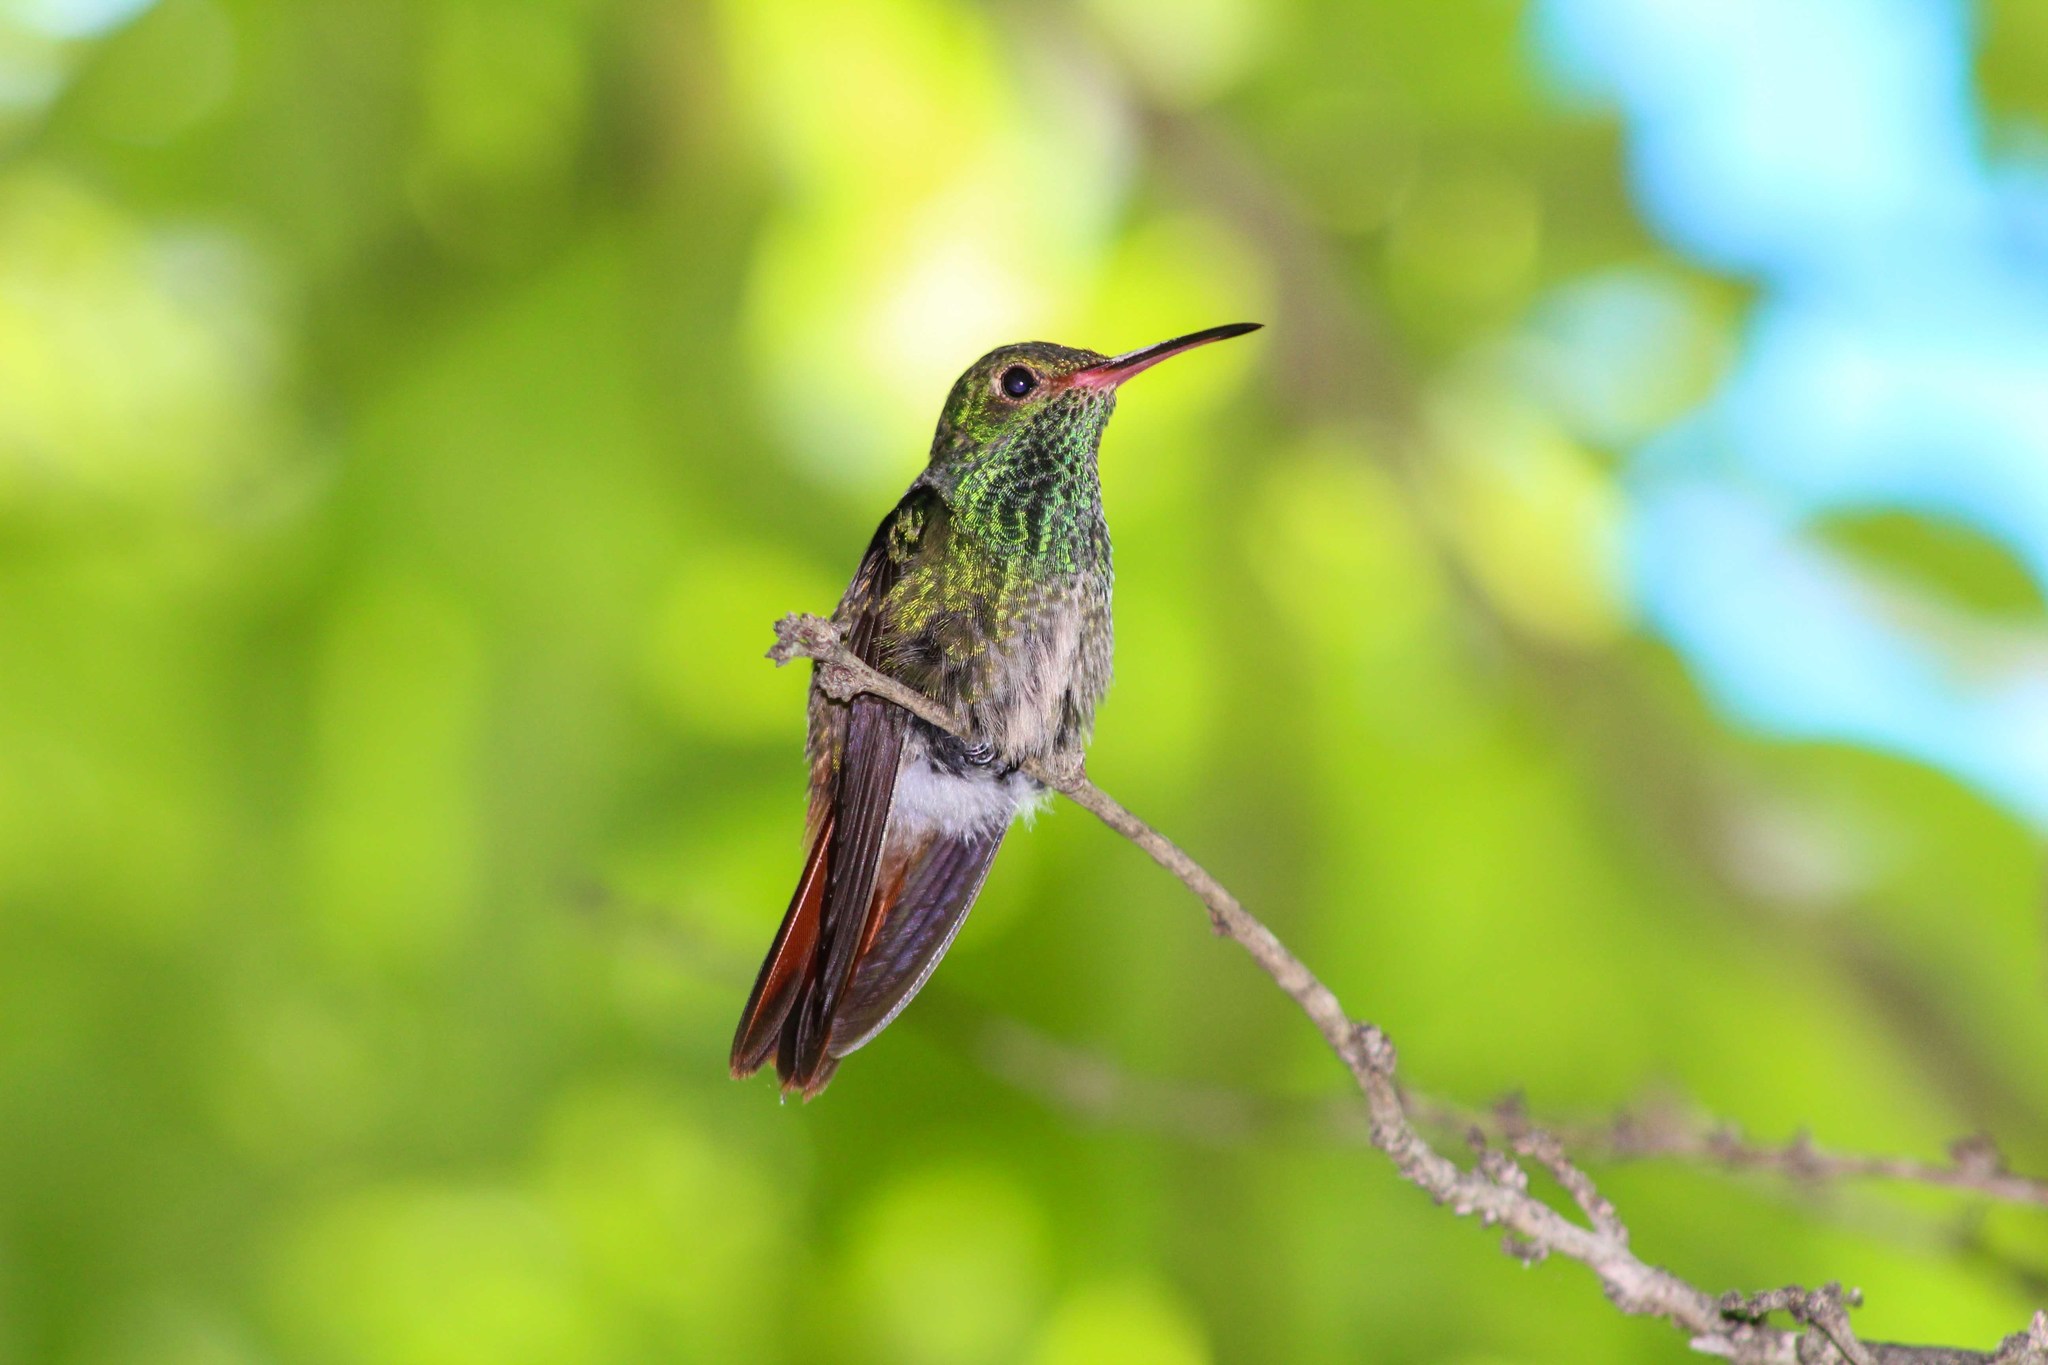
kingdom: Animalia
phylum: Chordata
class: Aves
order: Apodiformes
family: Trochilidae
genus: Amazilia
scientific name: Amazilia tzacatl
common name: Rufous-tailed hummingbird
